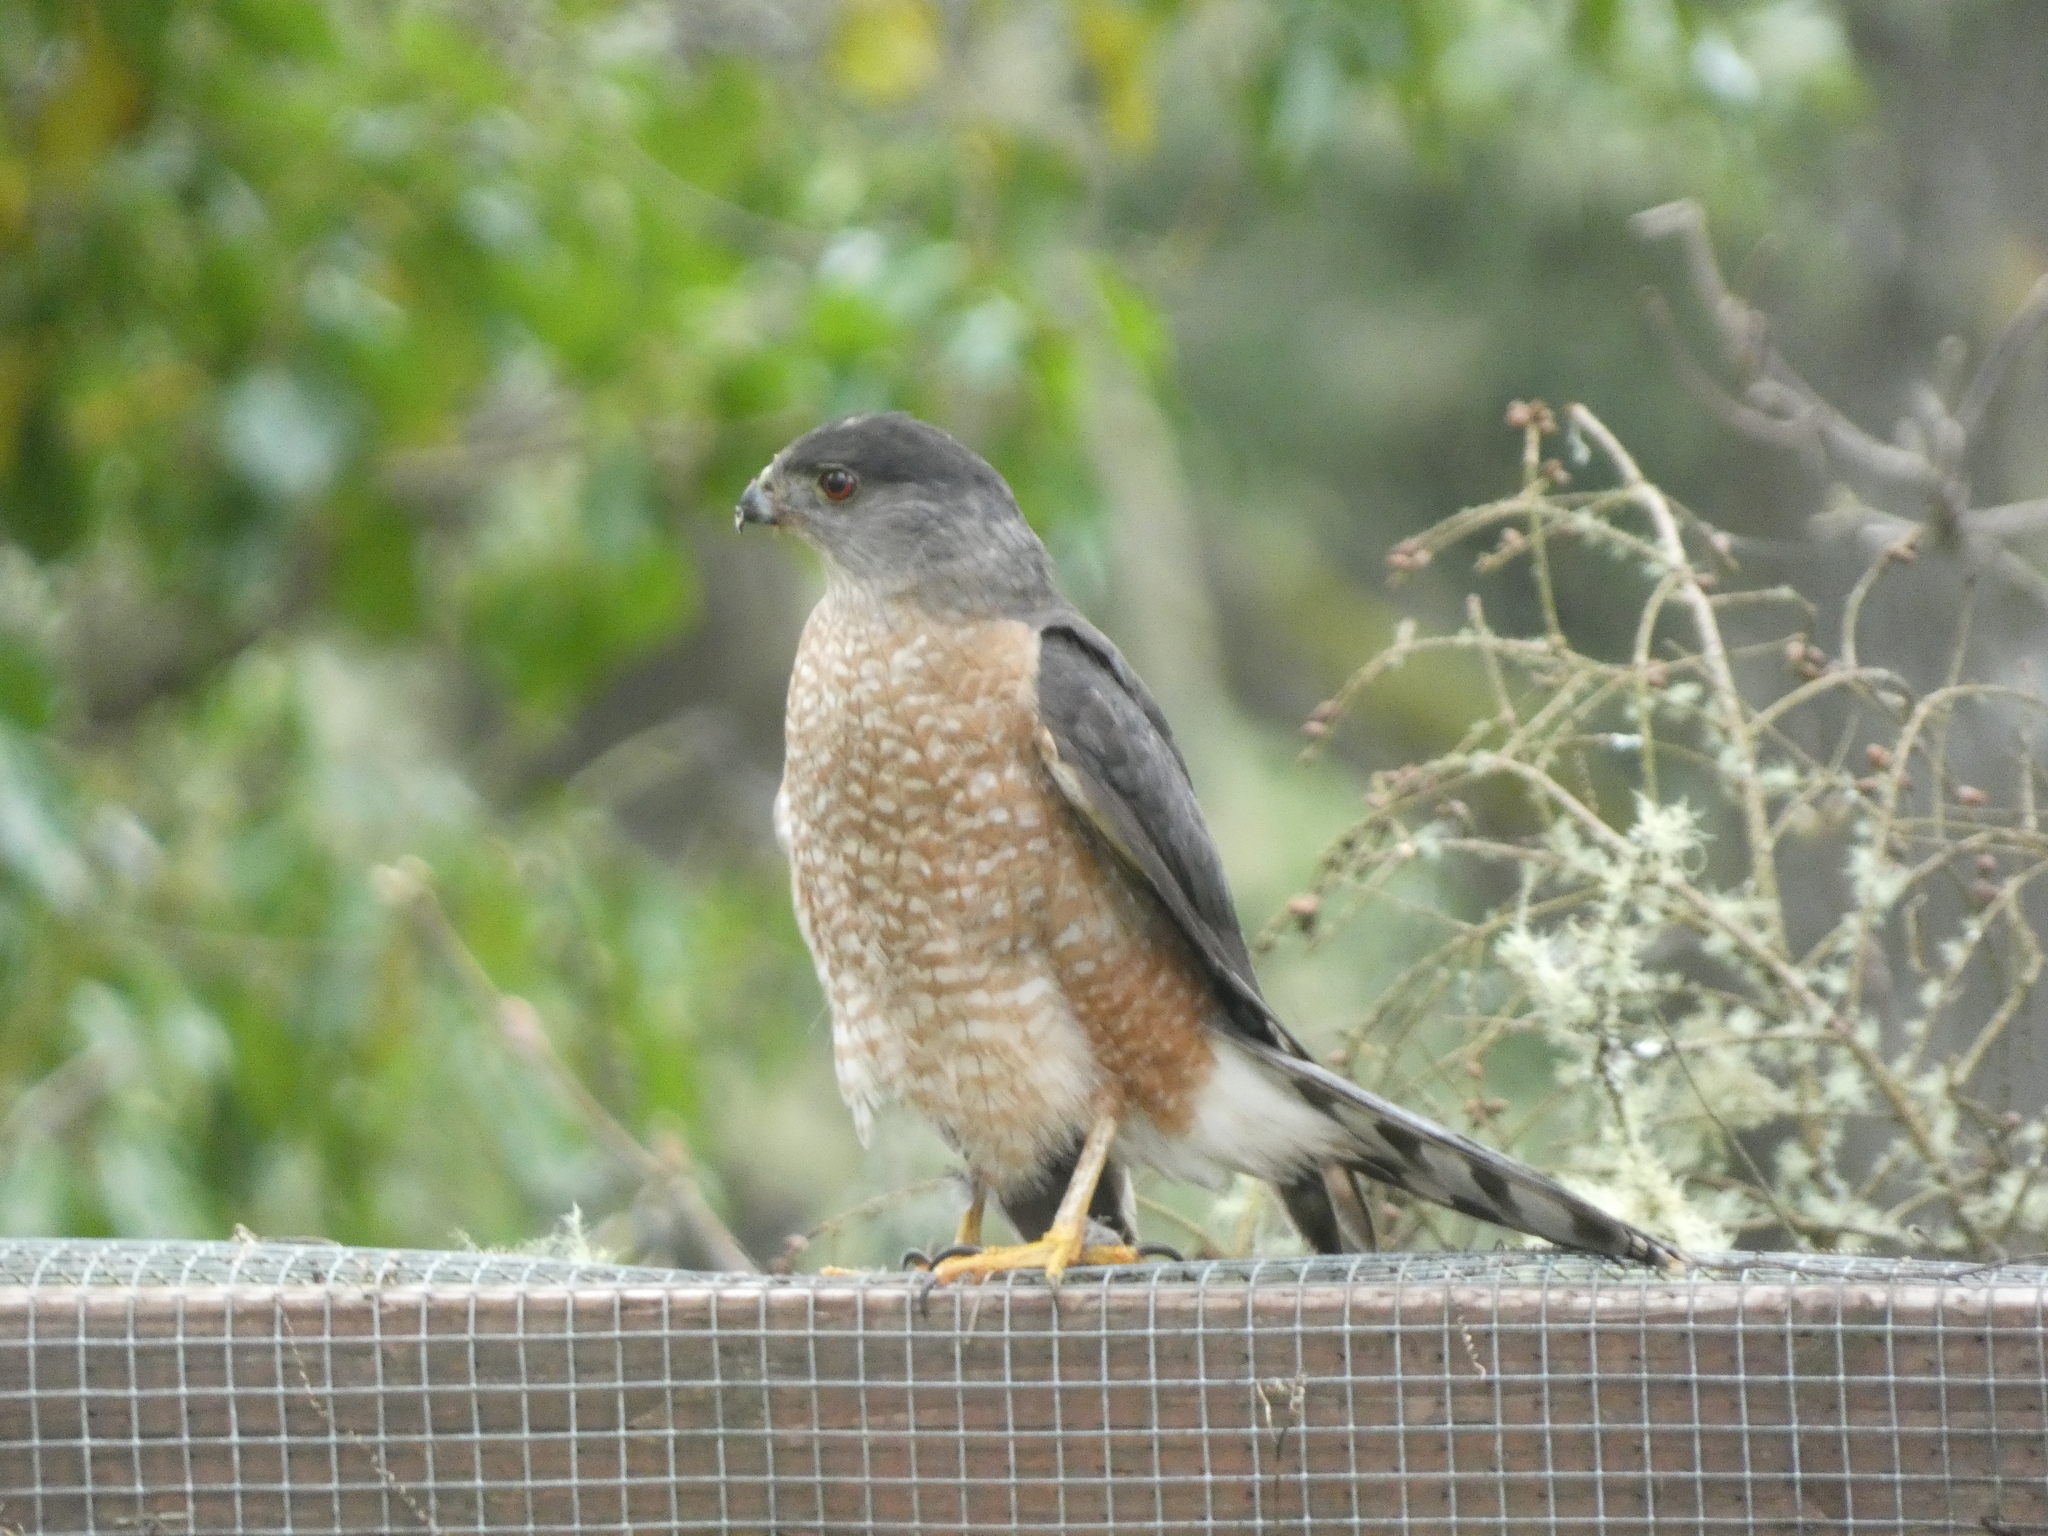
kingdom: Animalia
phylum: Chordata
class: Aves
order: Accipitriformes
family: Accipitridae
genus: Accipiter
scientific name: Accipiter cooperii
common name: Cooper's hawk
